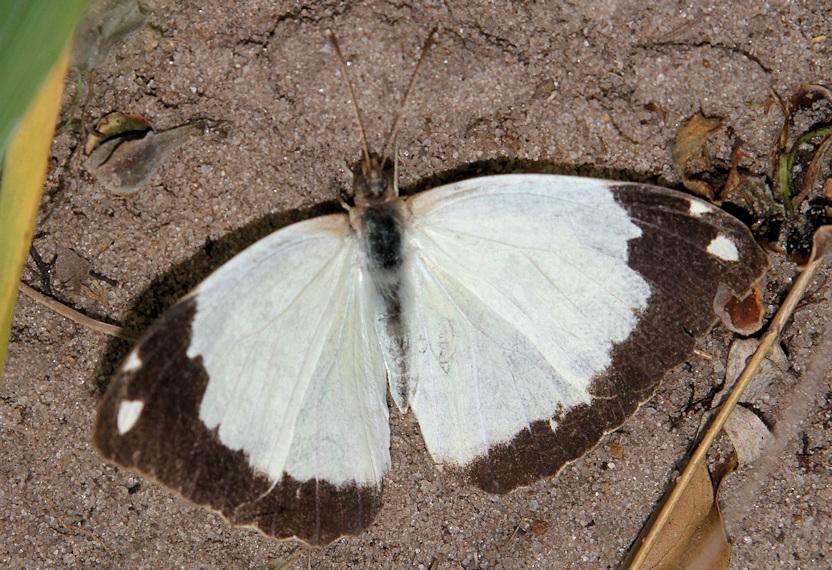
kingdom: Animalia
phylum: Arthropoda
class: Insecta
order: Lepidoptera
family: Pieridae
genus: Eronia
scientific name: Eronia cleodora
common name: Vine-leaf vagrant
